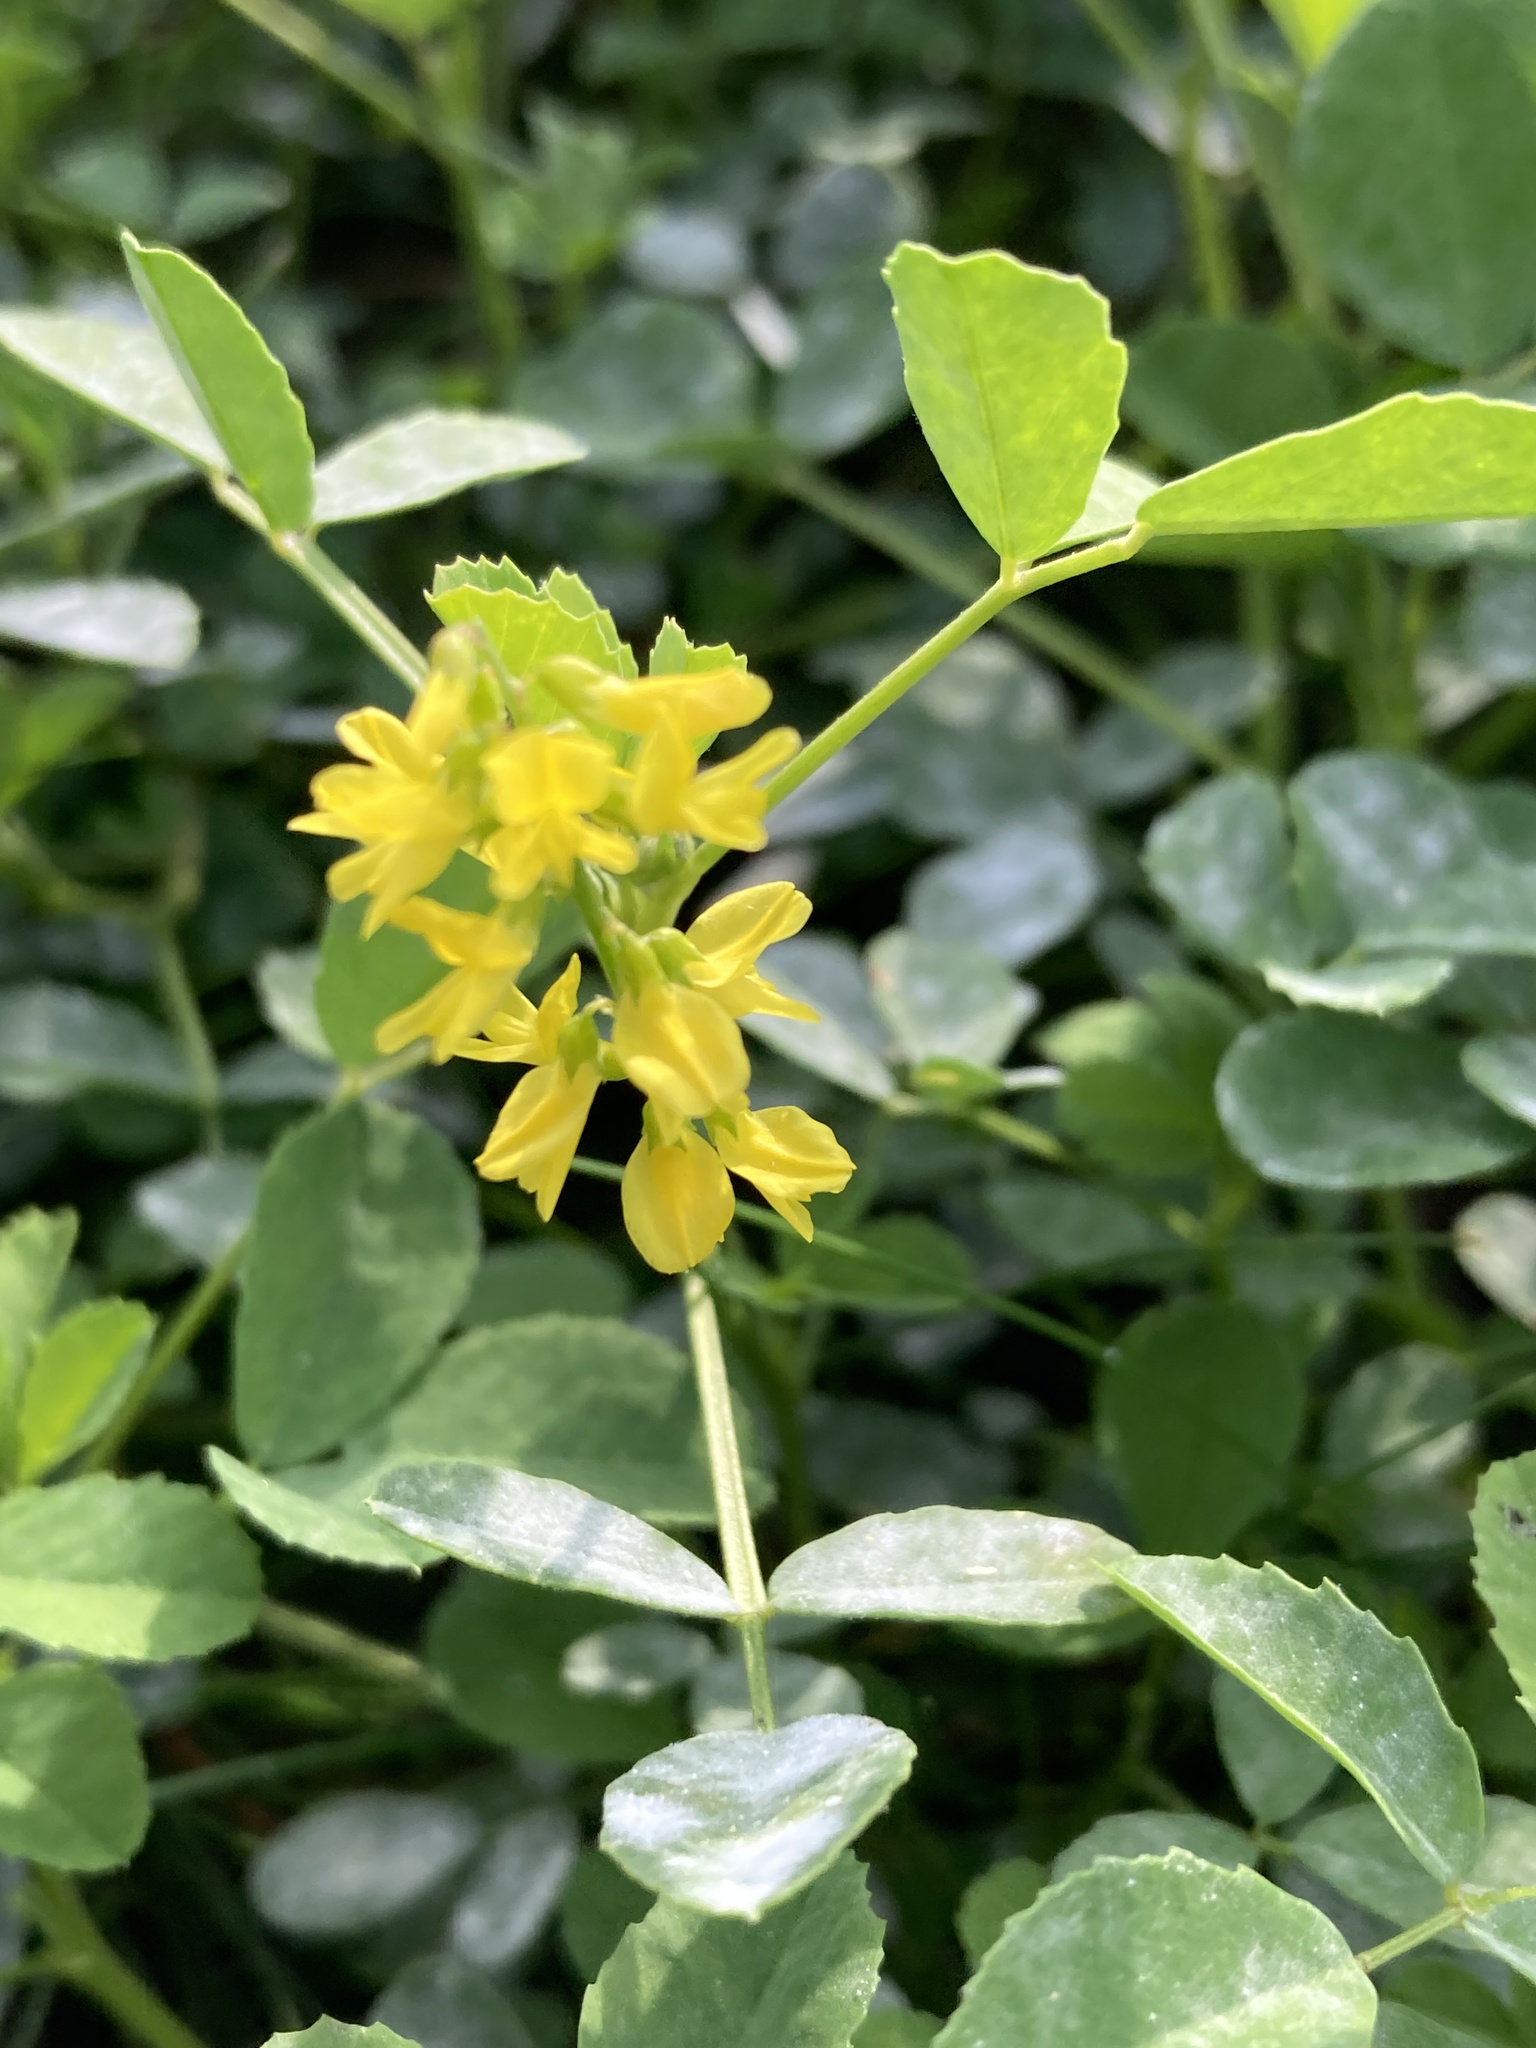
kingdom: Plantae
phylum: Tracheophyta
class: Magnoliopsida
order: Fabales
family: Fabaceae
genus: Melilotus
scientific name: Melilotus officinalis
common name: Sweetclover
